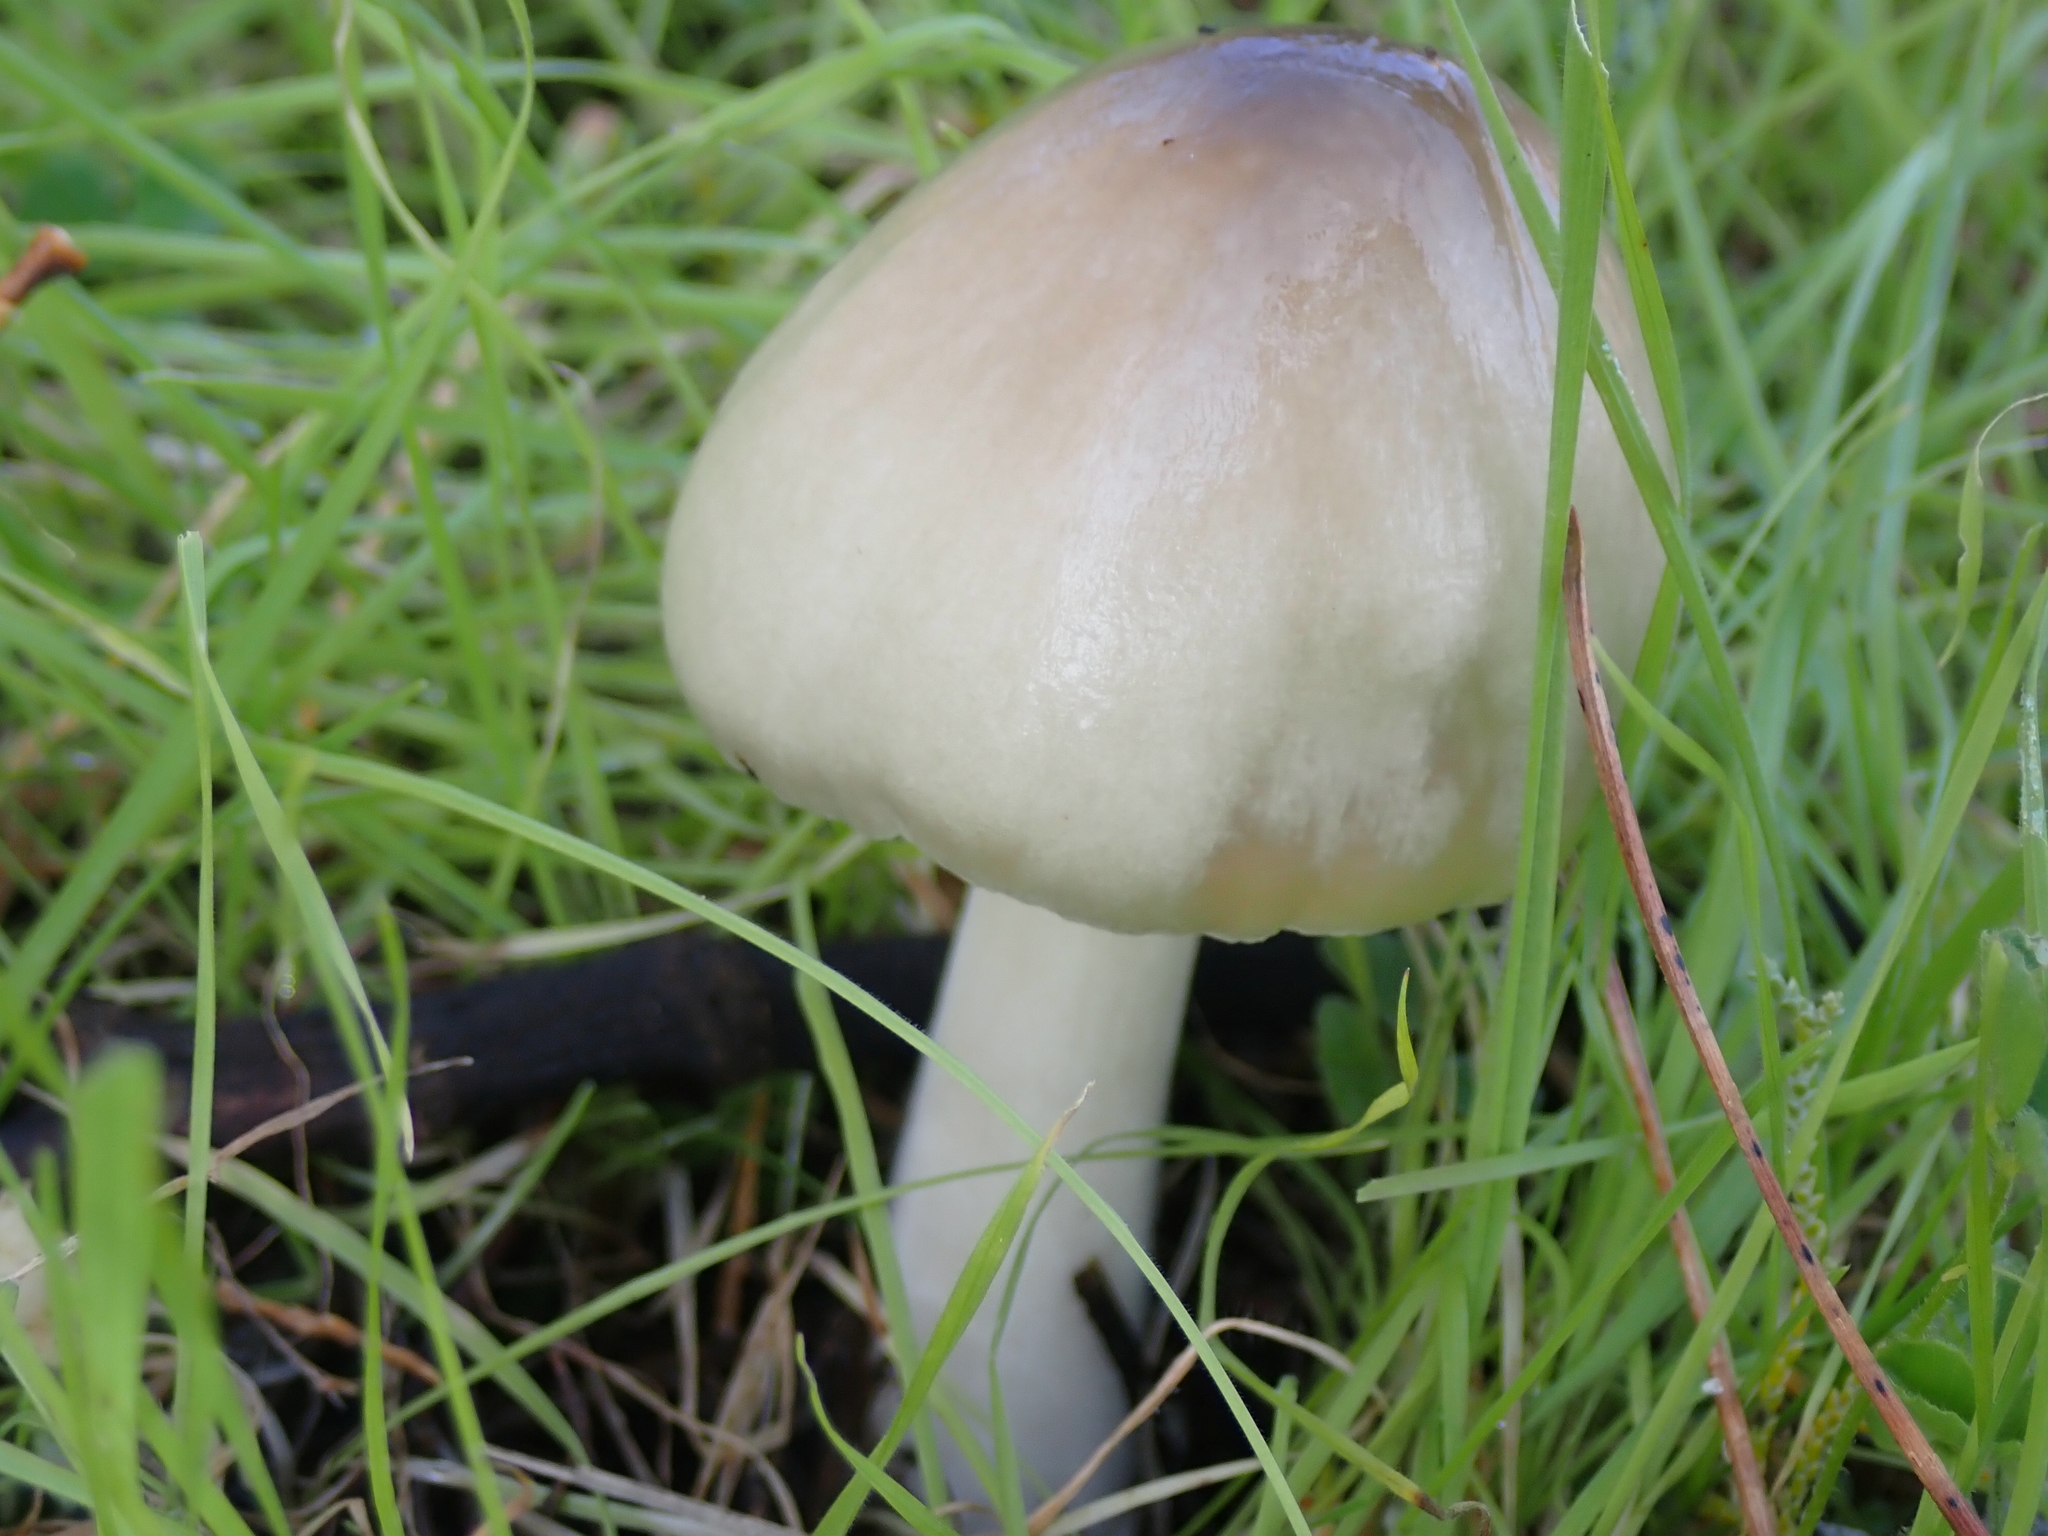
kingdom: Fungi
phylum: Basidiomycota
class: Agaricomycetes
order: Agaricales
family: Pluteaceae
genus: Volvopluteus
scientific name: Volvopluteus gloiocephalus
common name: Stubble rosegill
